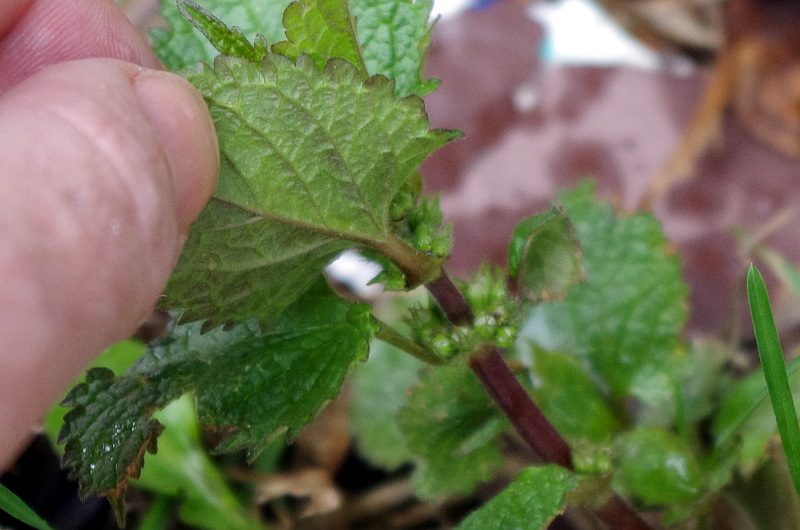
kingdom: Plantae
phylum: Tracheophyta
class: Magnoliopsida
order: Lamiales
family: Lamiaceae
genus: Lamium
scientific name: Lamium album
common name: White dead-nettle
